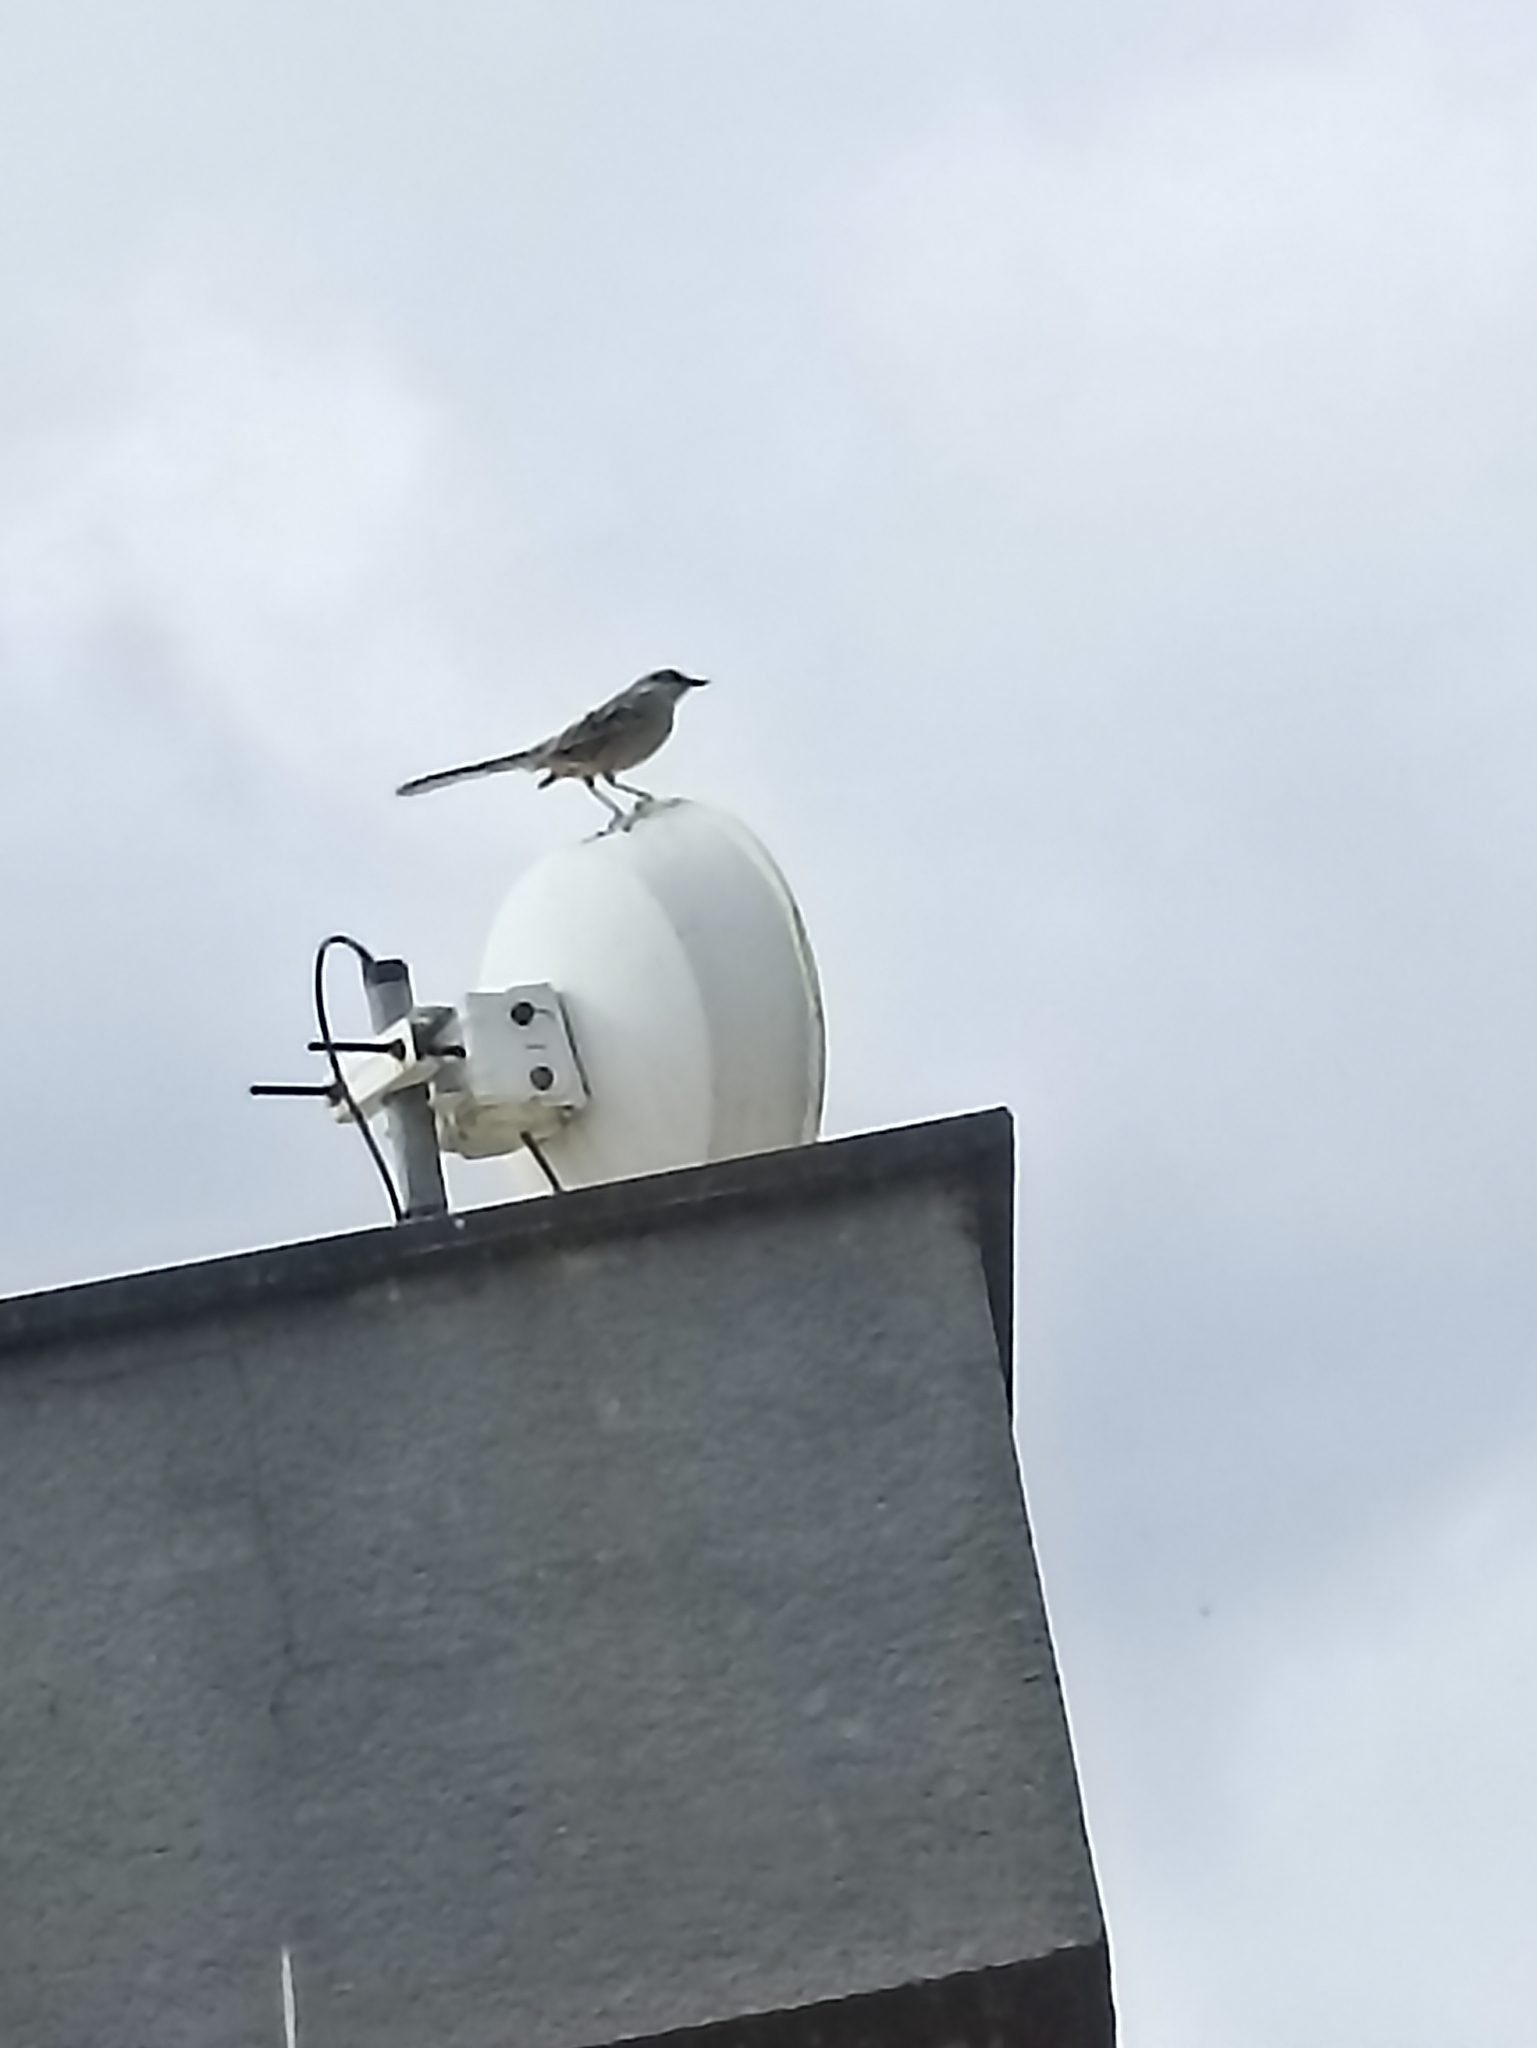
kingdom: Animalia
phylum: Chordata
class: Aves
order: Passeriformes
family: Mimidae
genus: Mimus
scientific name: Mimus saturninus
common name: Chalk-browed mockingbird
